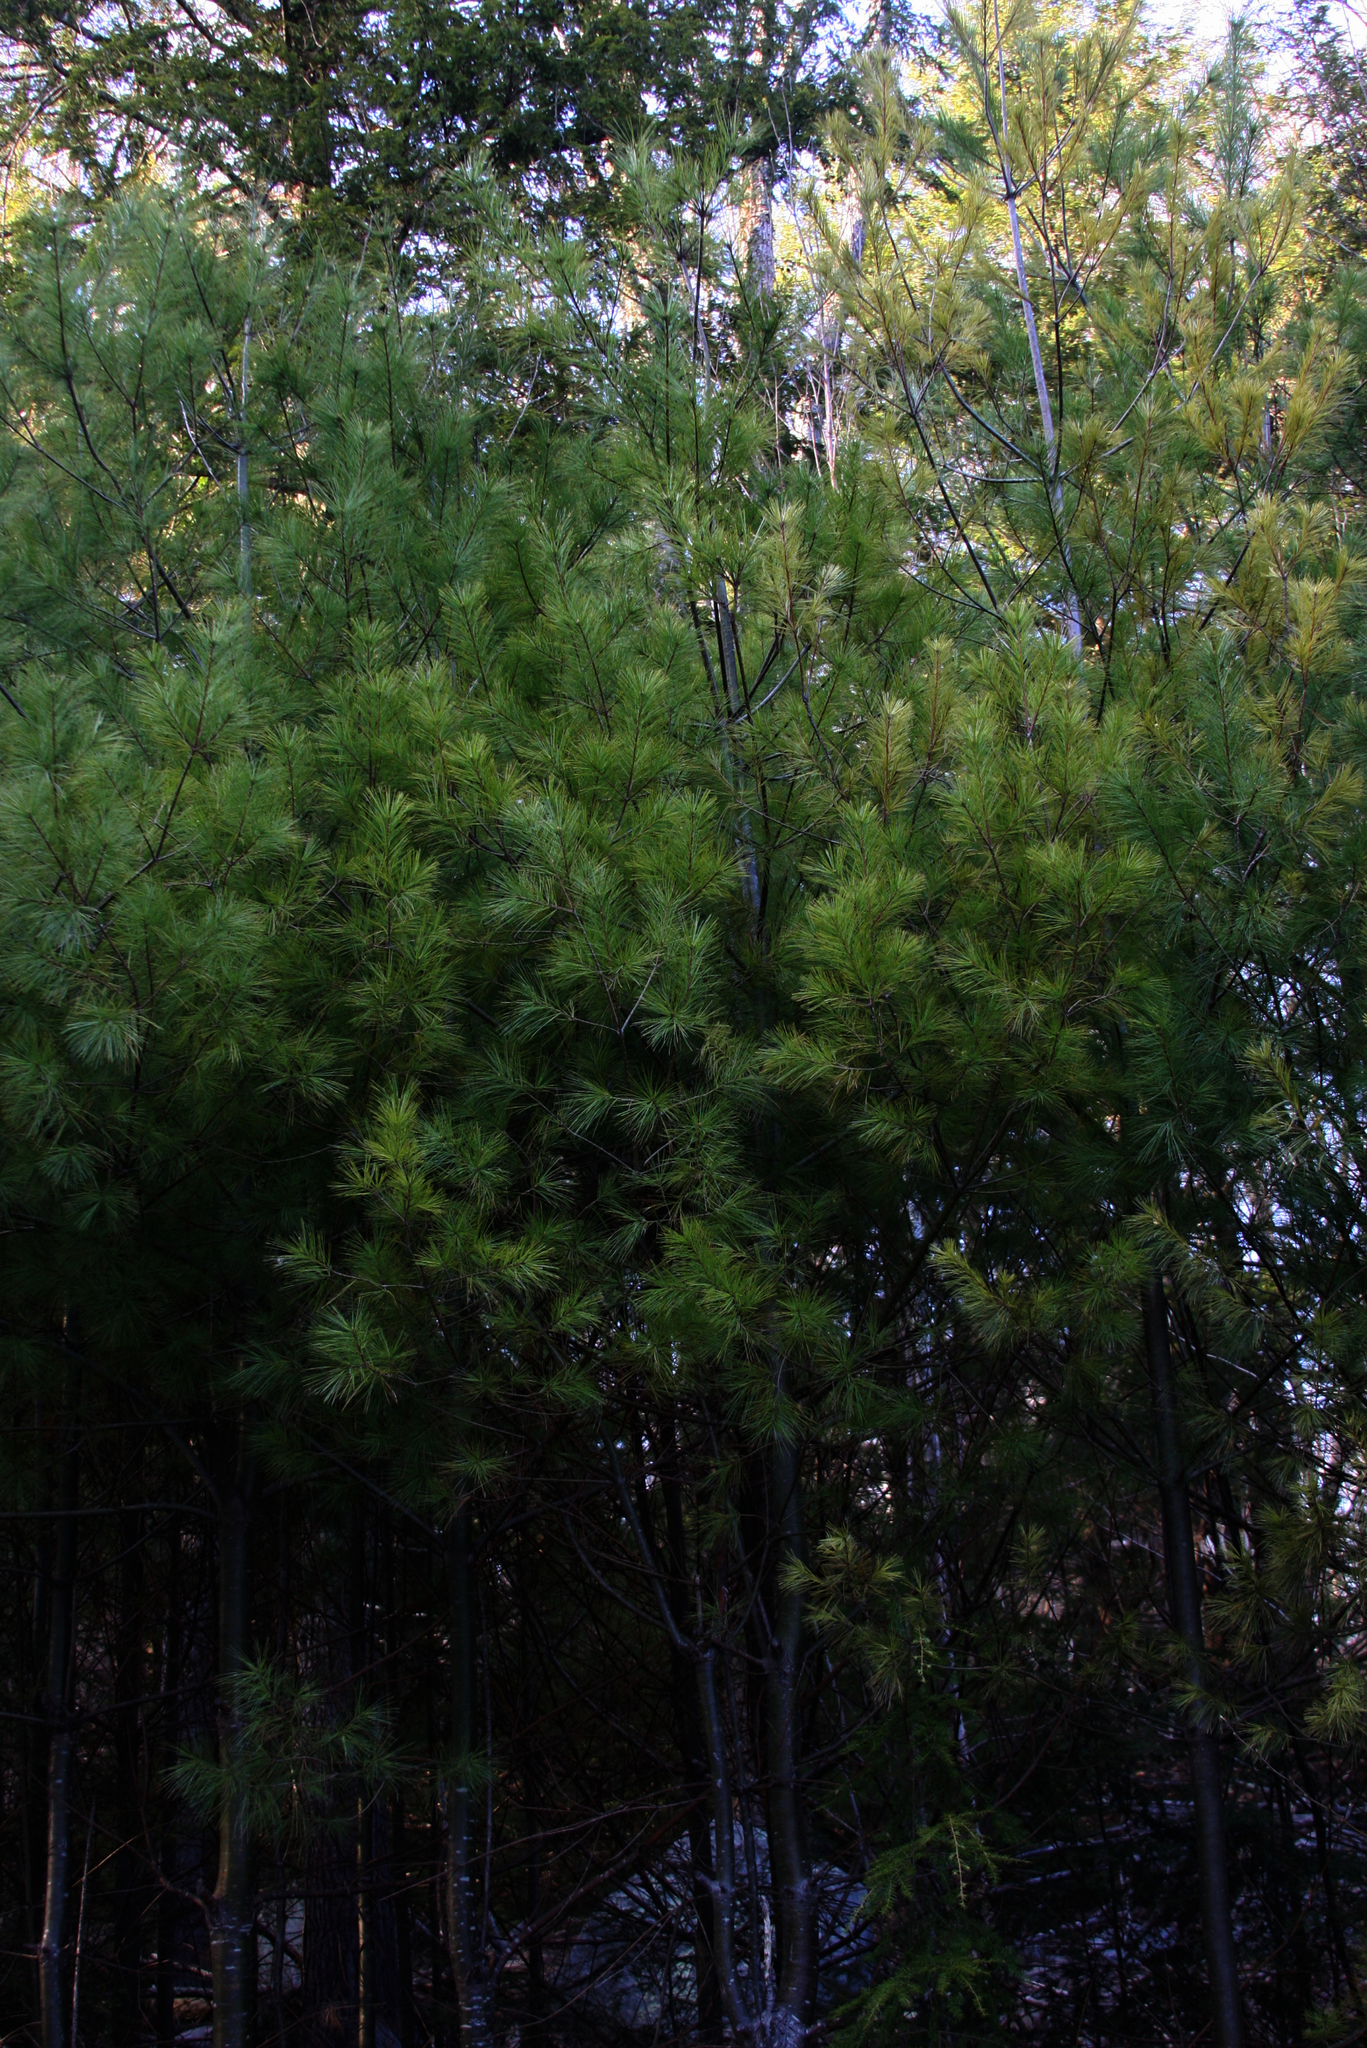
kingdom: Plantae
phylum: Tracheophyta
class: Pinopsida
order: Pinales
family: Pinaceae
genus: Pinus
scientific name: Pinus strobus
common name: Weymouth pine
